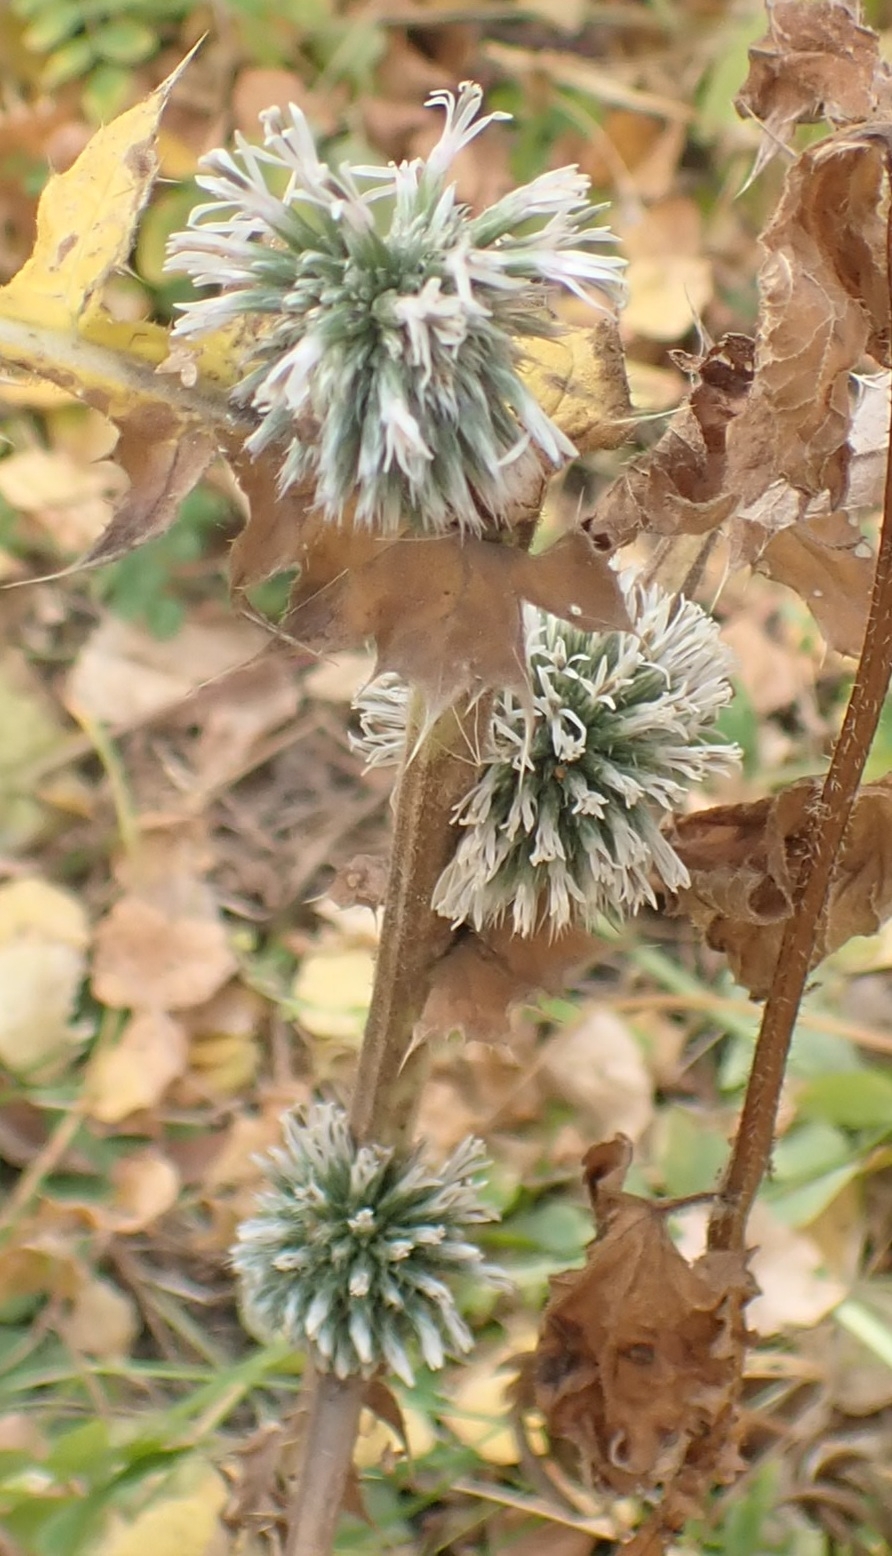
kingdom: Plantae
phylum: Tracheophyta
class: Magnoliopsida
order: Asterales
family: Asteraceae
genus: Echinops
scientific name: Echinops sphaerocephalus
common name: Glandular globe-thistle
